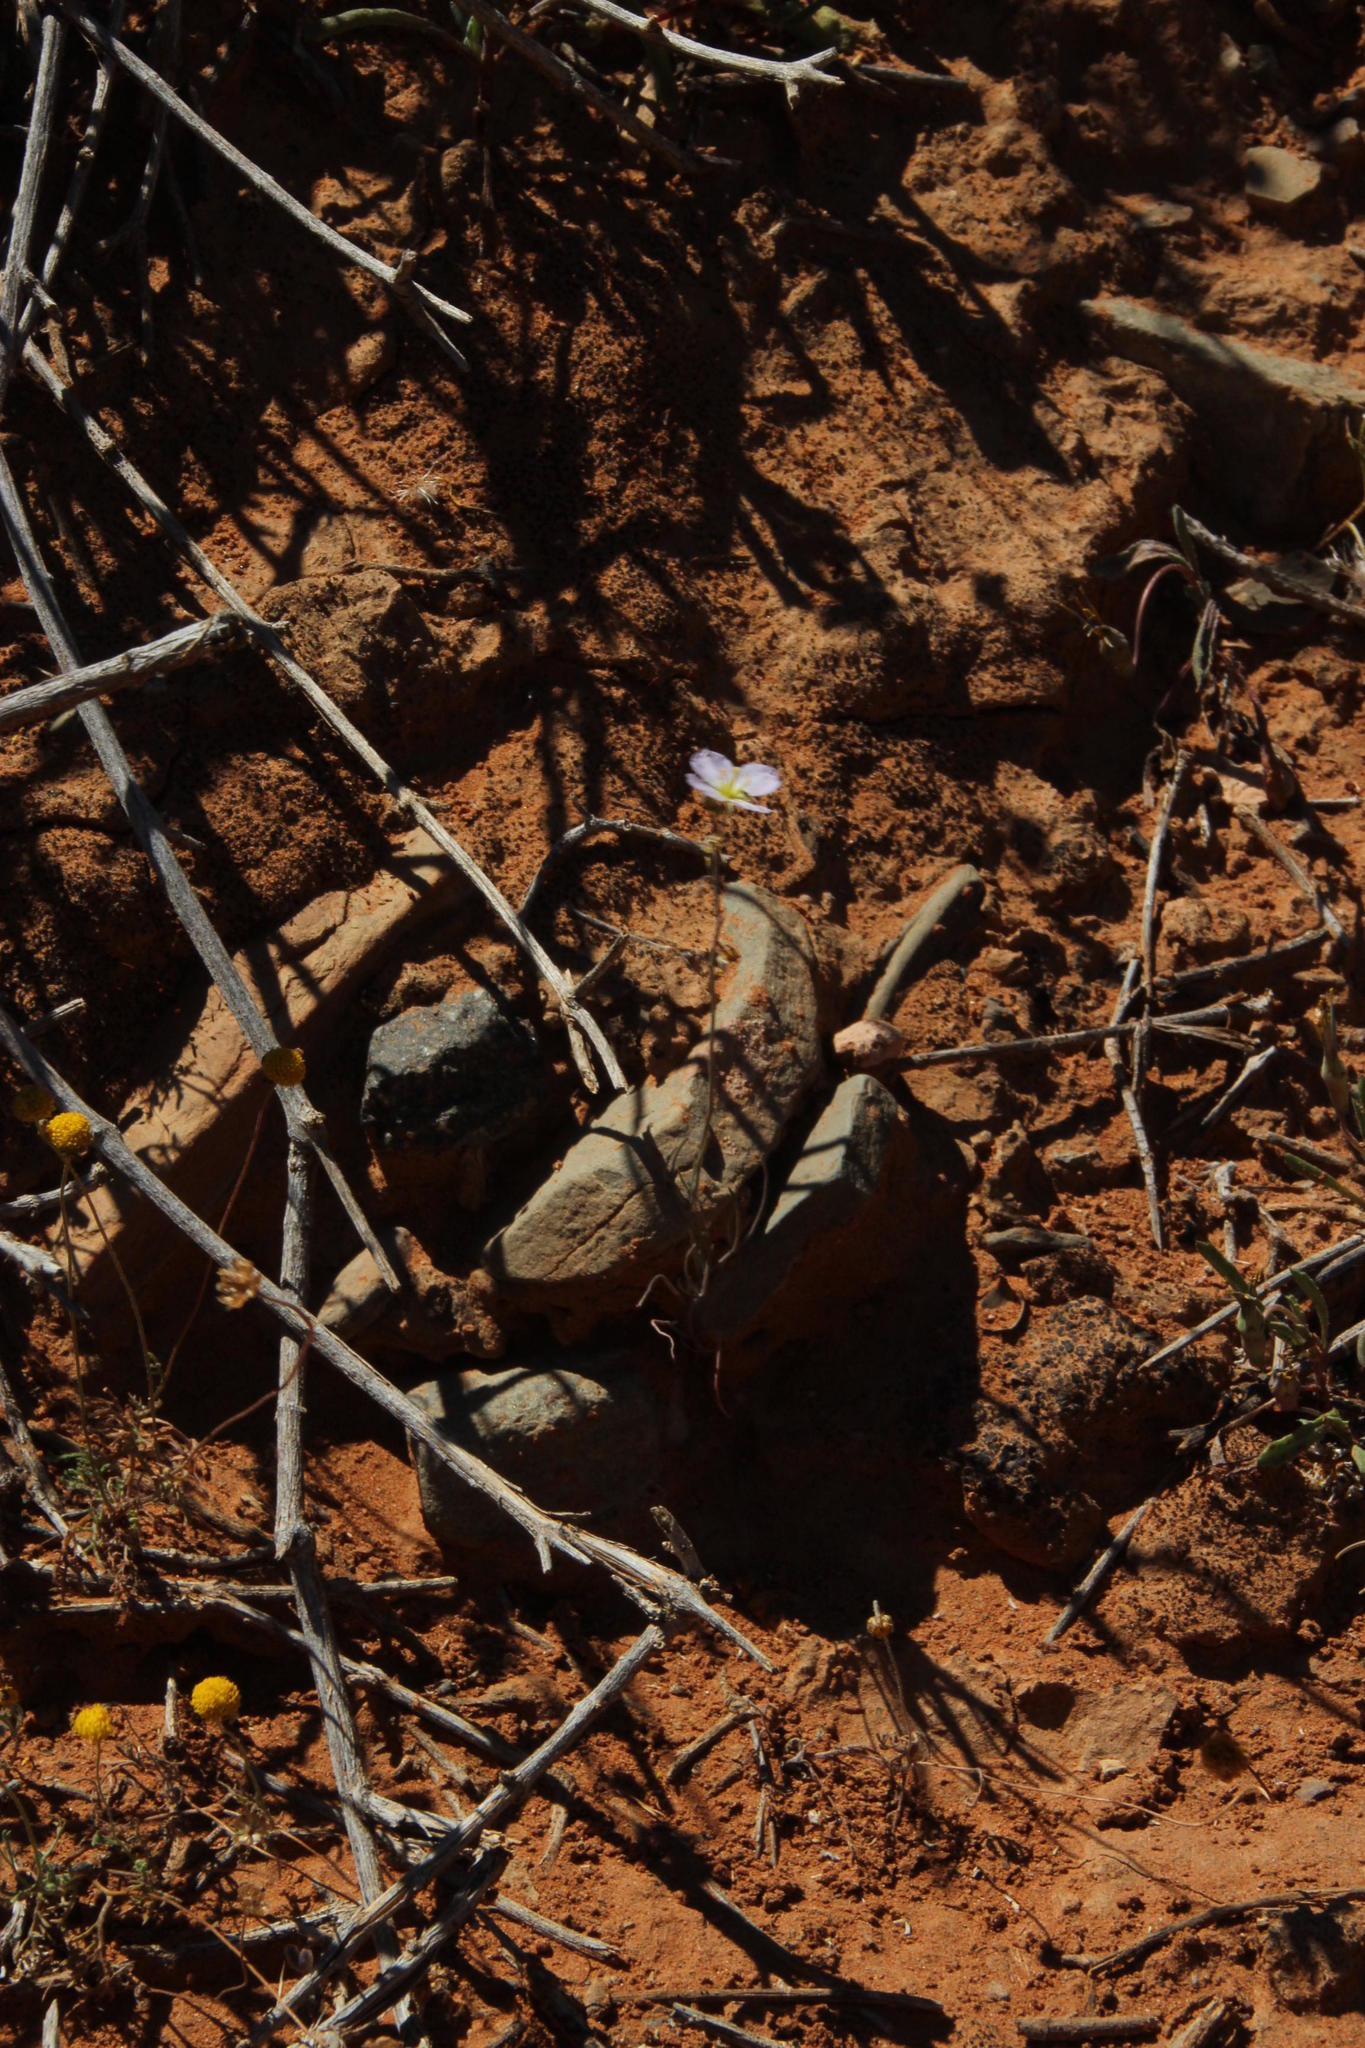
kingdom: Plantae
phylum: Tracheophyta
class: Magnoliopsida
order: Brassicales
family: Brassicaceae
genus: Heliophila
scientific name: Heliophila deserticola
